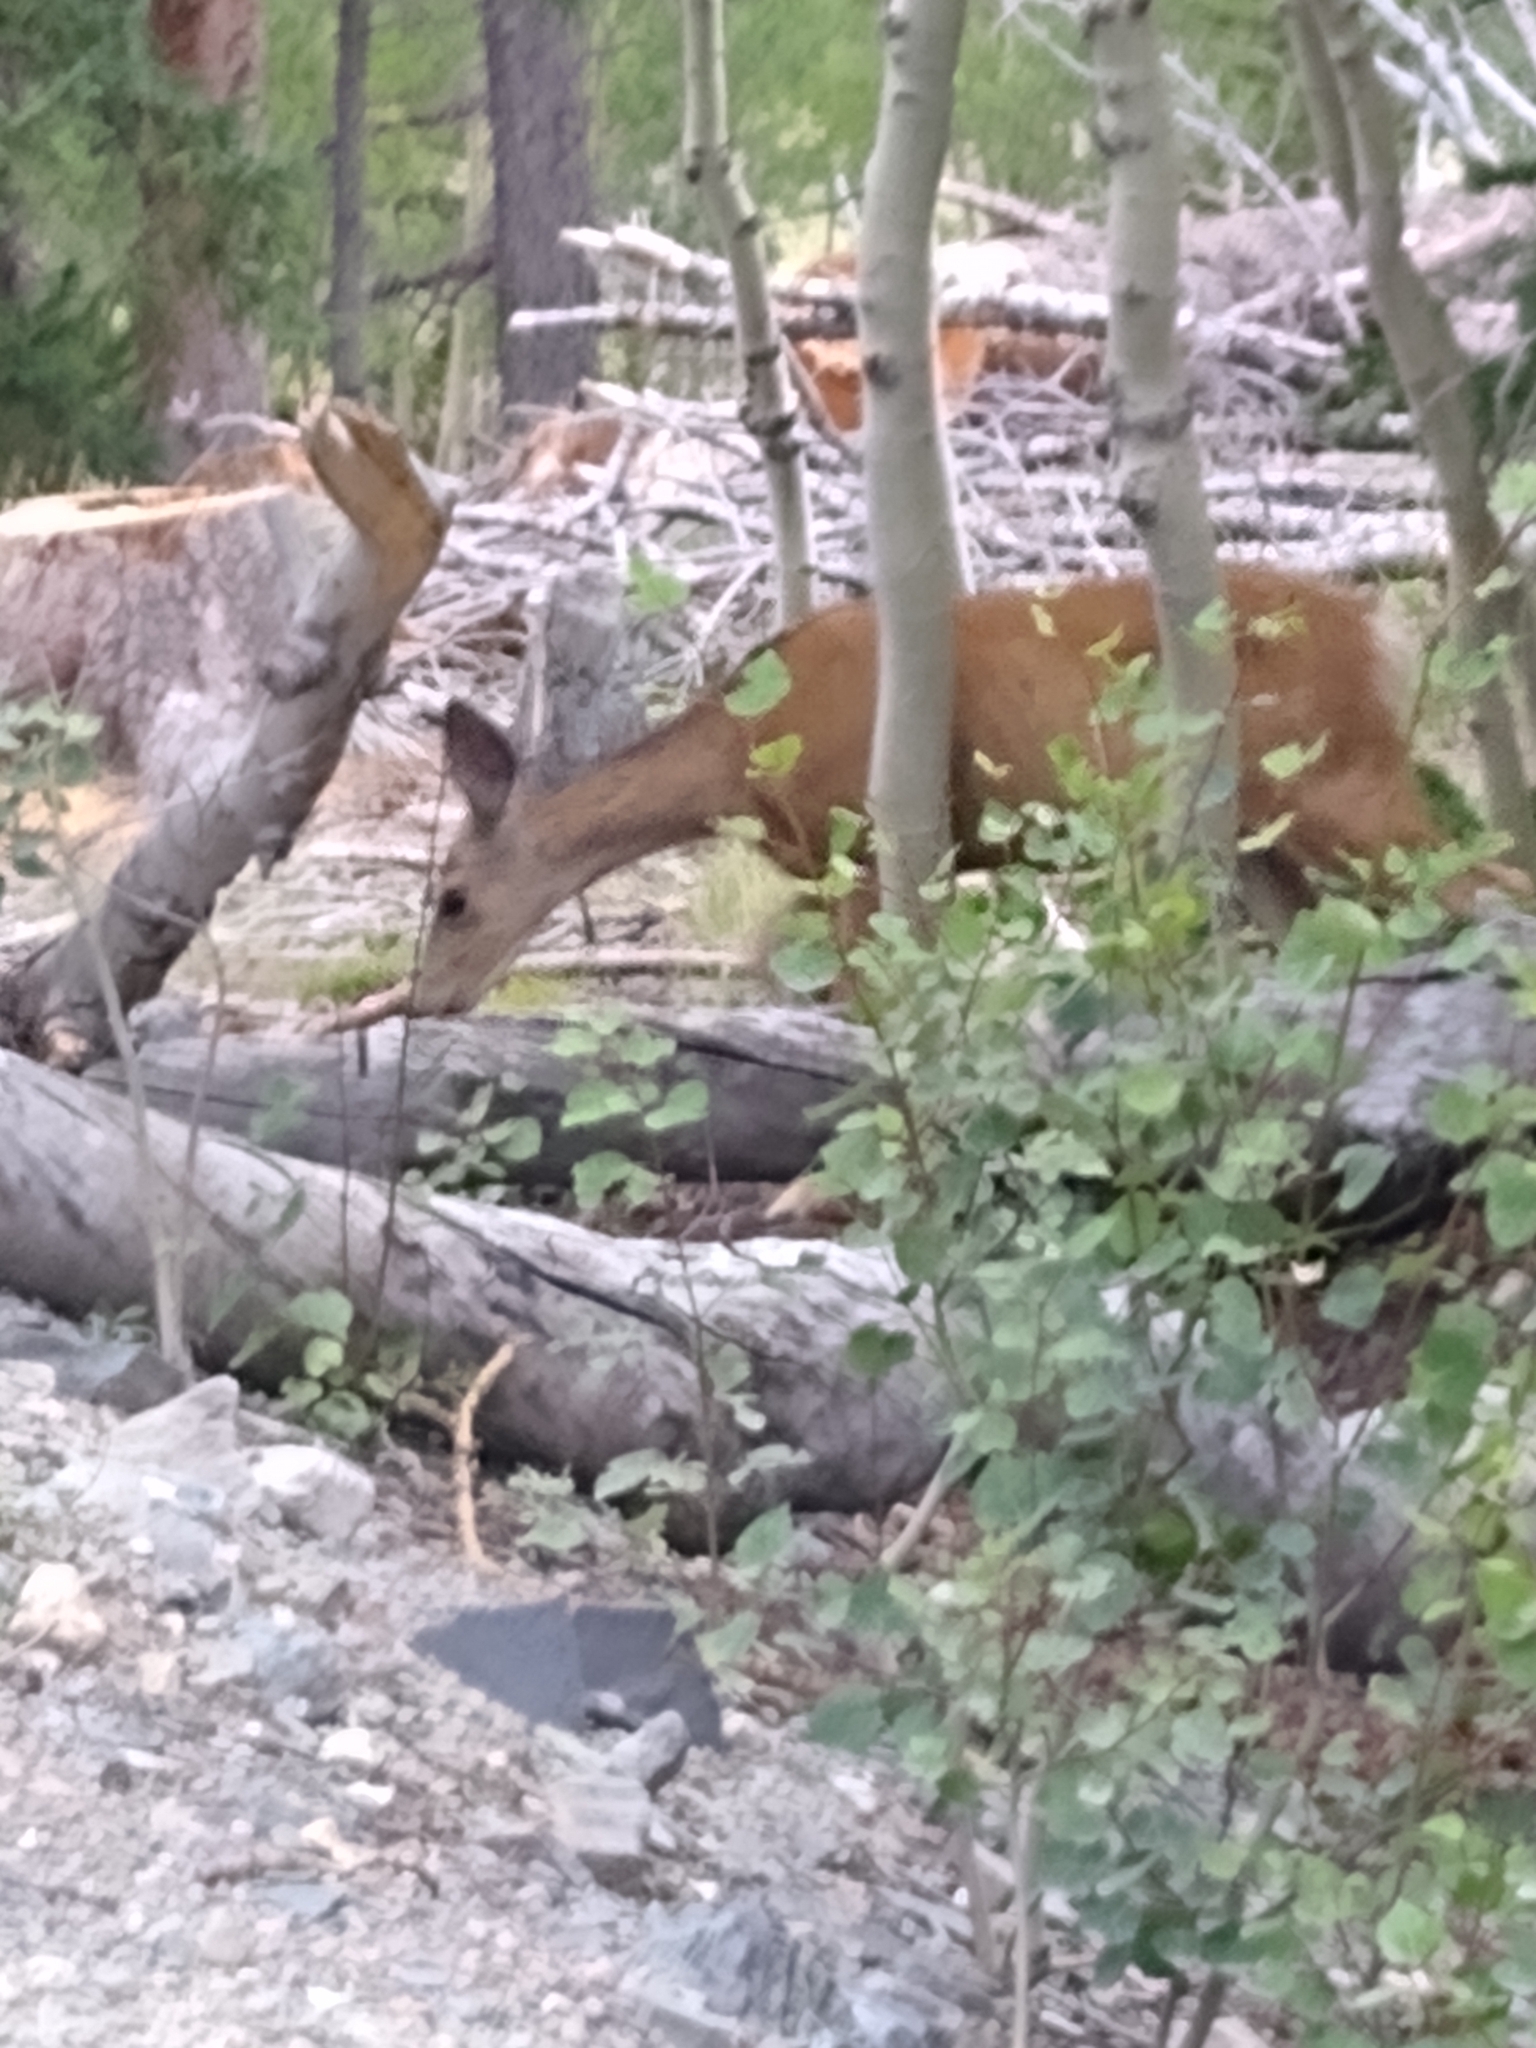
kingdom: Animalia
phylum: Chordata
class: Mammalia
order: Artiodactyla
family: Cervidae
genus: Odocoileus
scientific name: Odocoileus hemionus
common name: Mule deer
